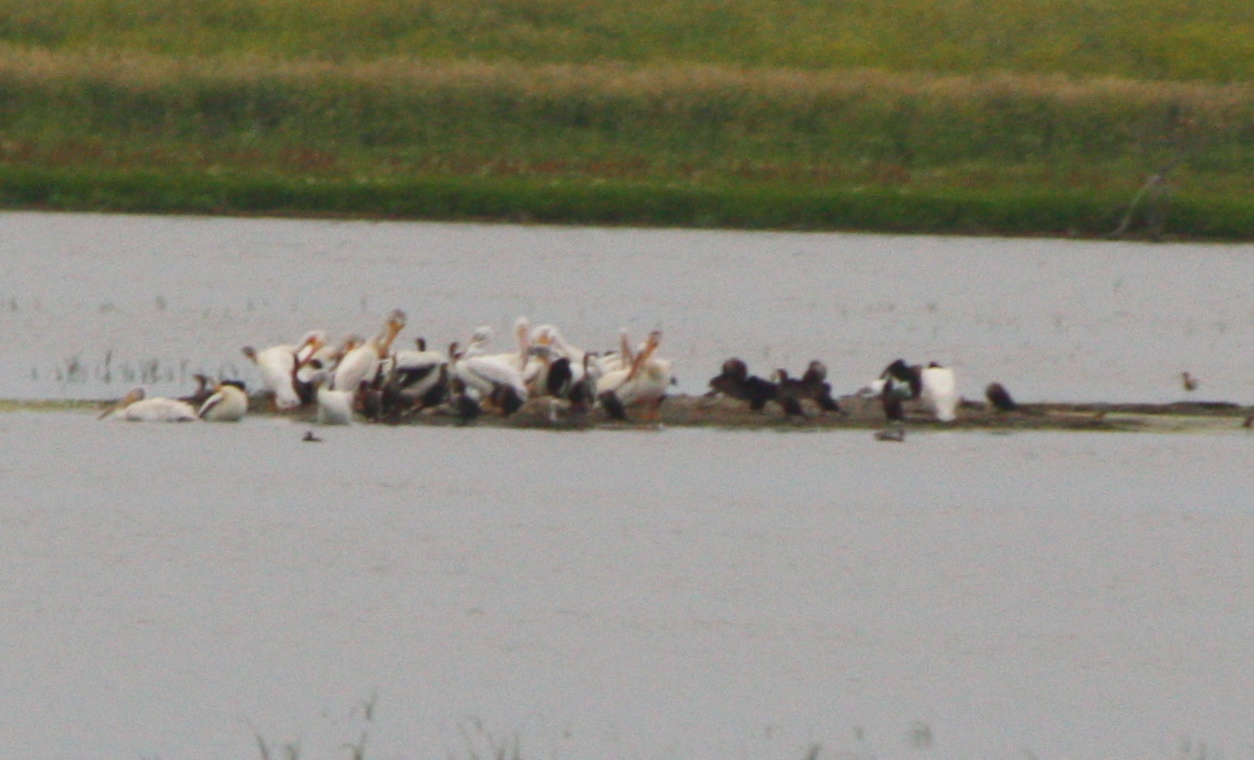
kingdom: Animalia
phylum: Chordata
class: Aves
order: Pelecaniformes
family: Pelecanidae
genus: Pelecanus
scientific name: Pelecanus erythrorhynchos
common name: American white pelican
